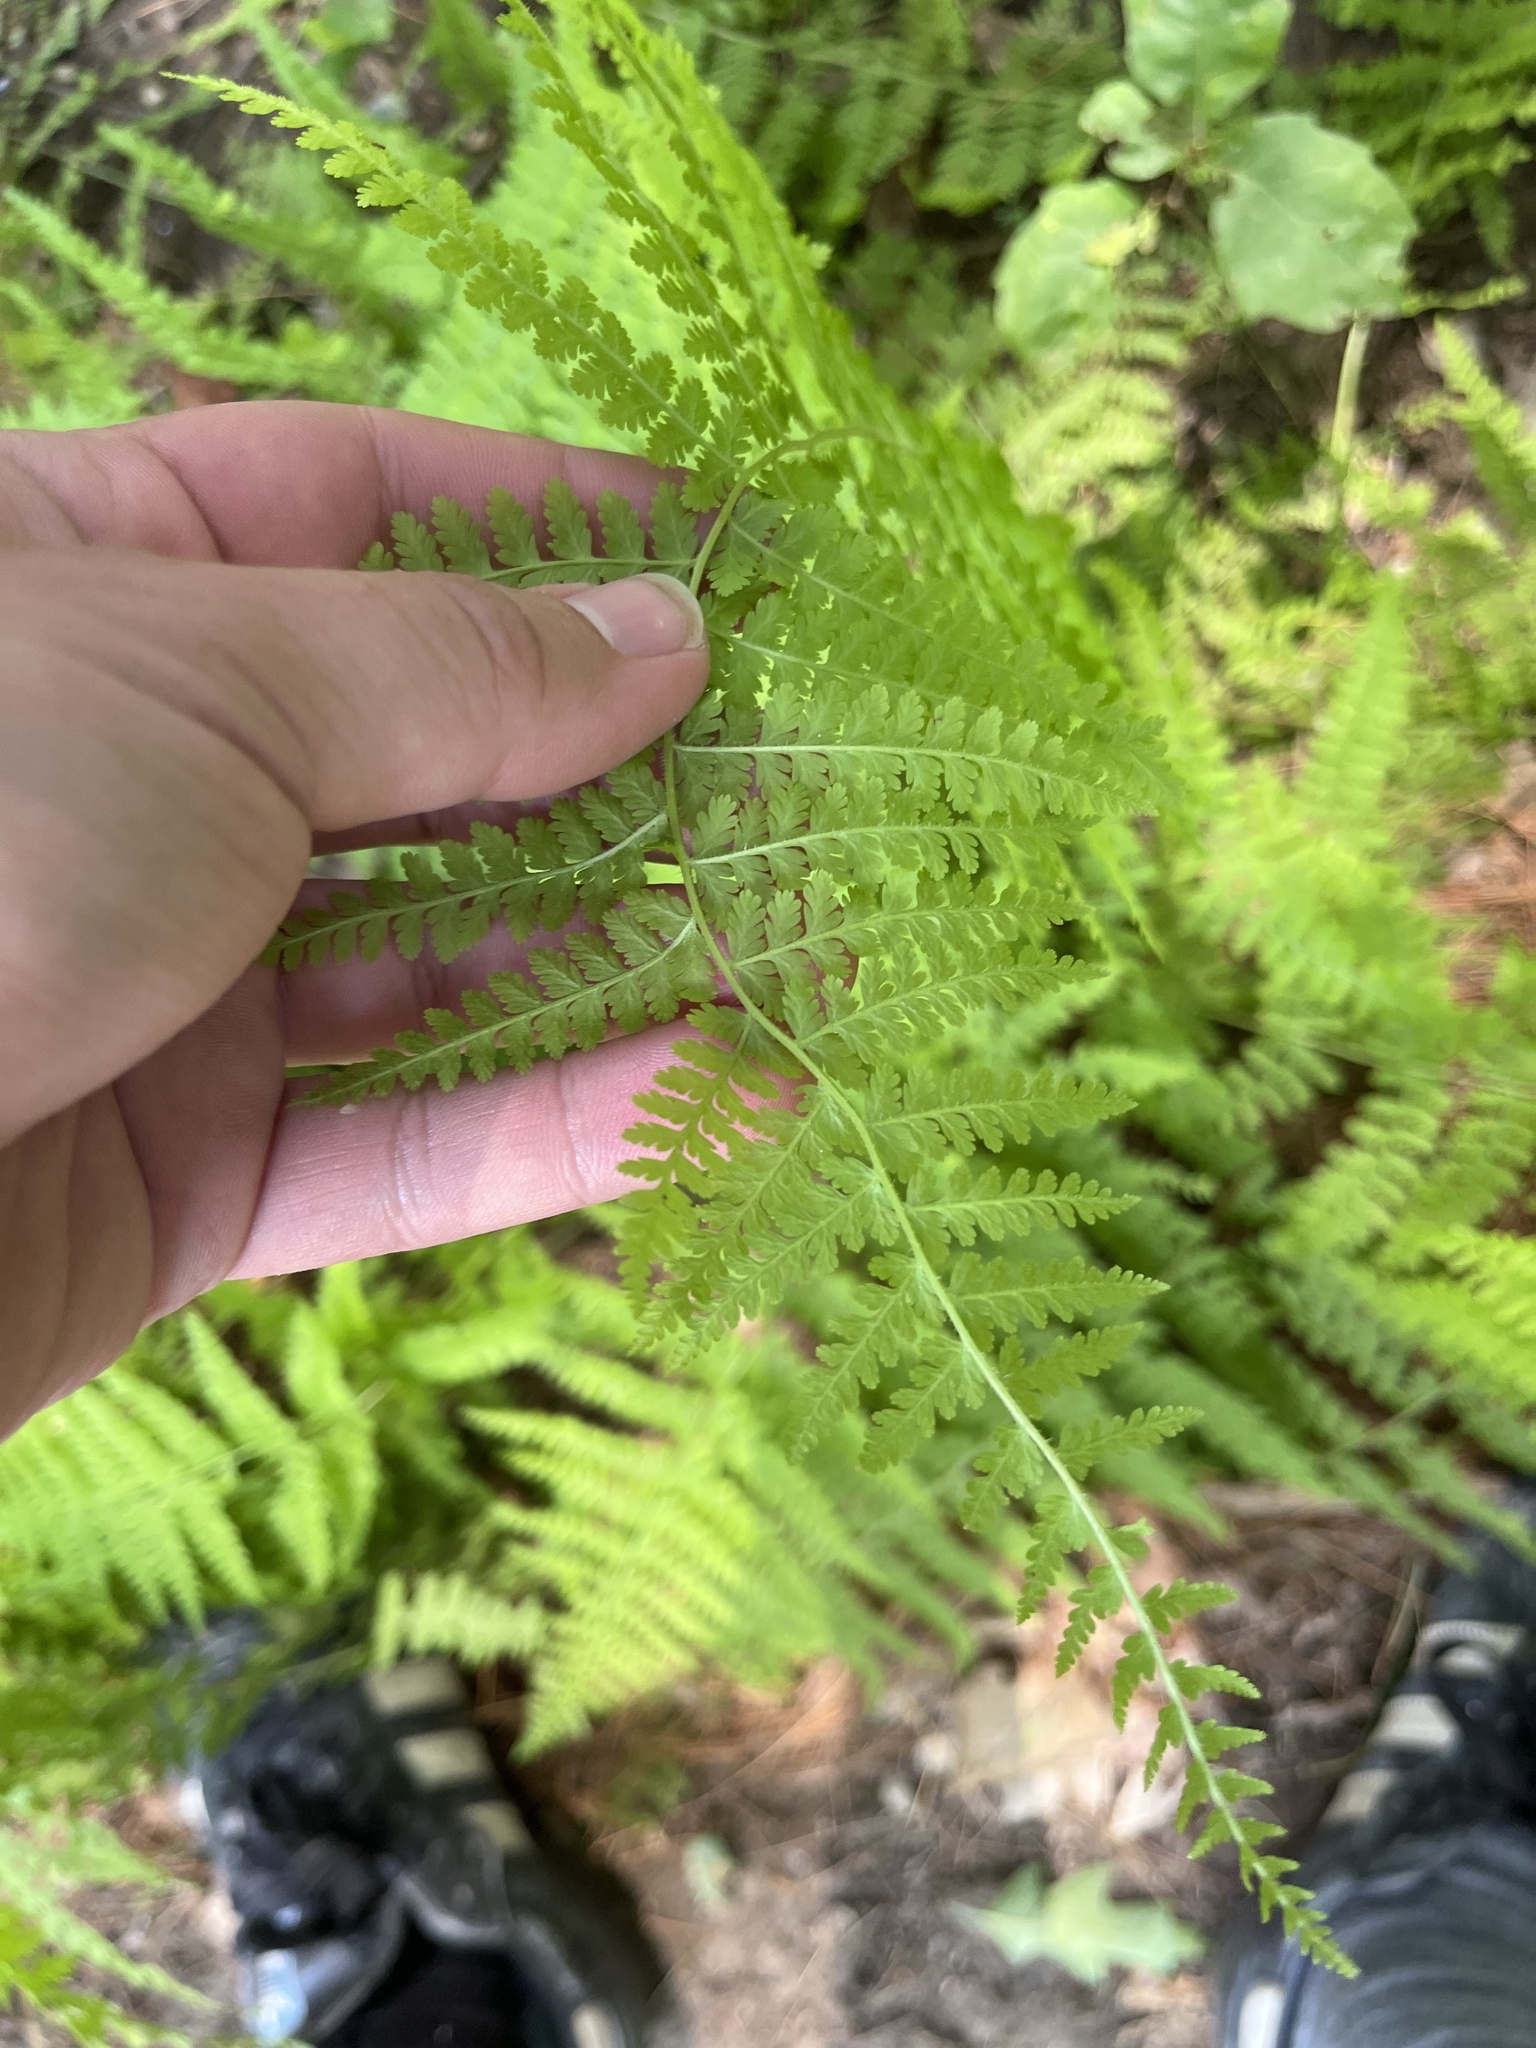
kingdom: Plantae
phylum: Tracheophyta
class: Polypodiopsida
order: Polypodiales
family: Dennstaedtiaceae
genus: Sitobolium
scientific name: Sitobolium punctilobum
